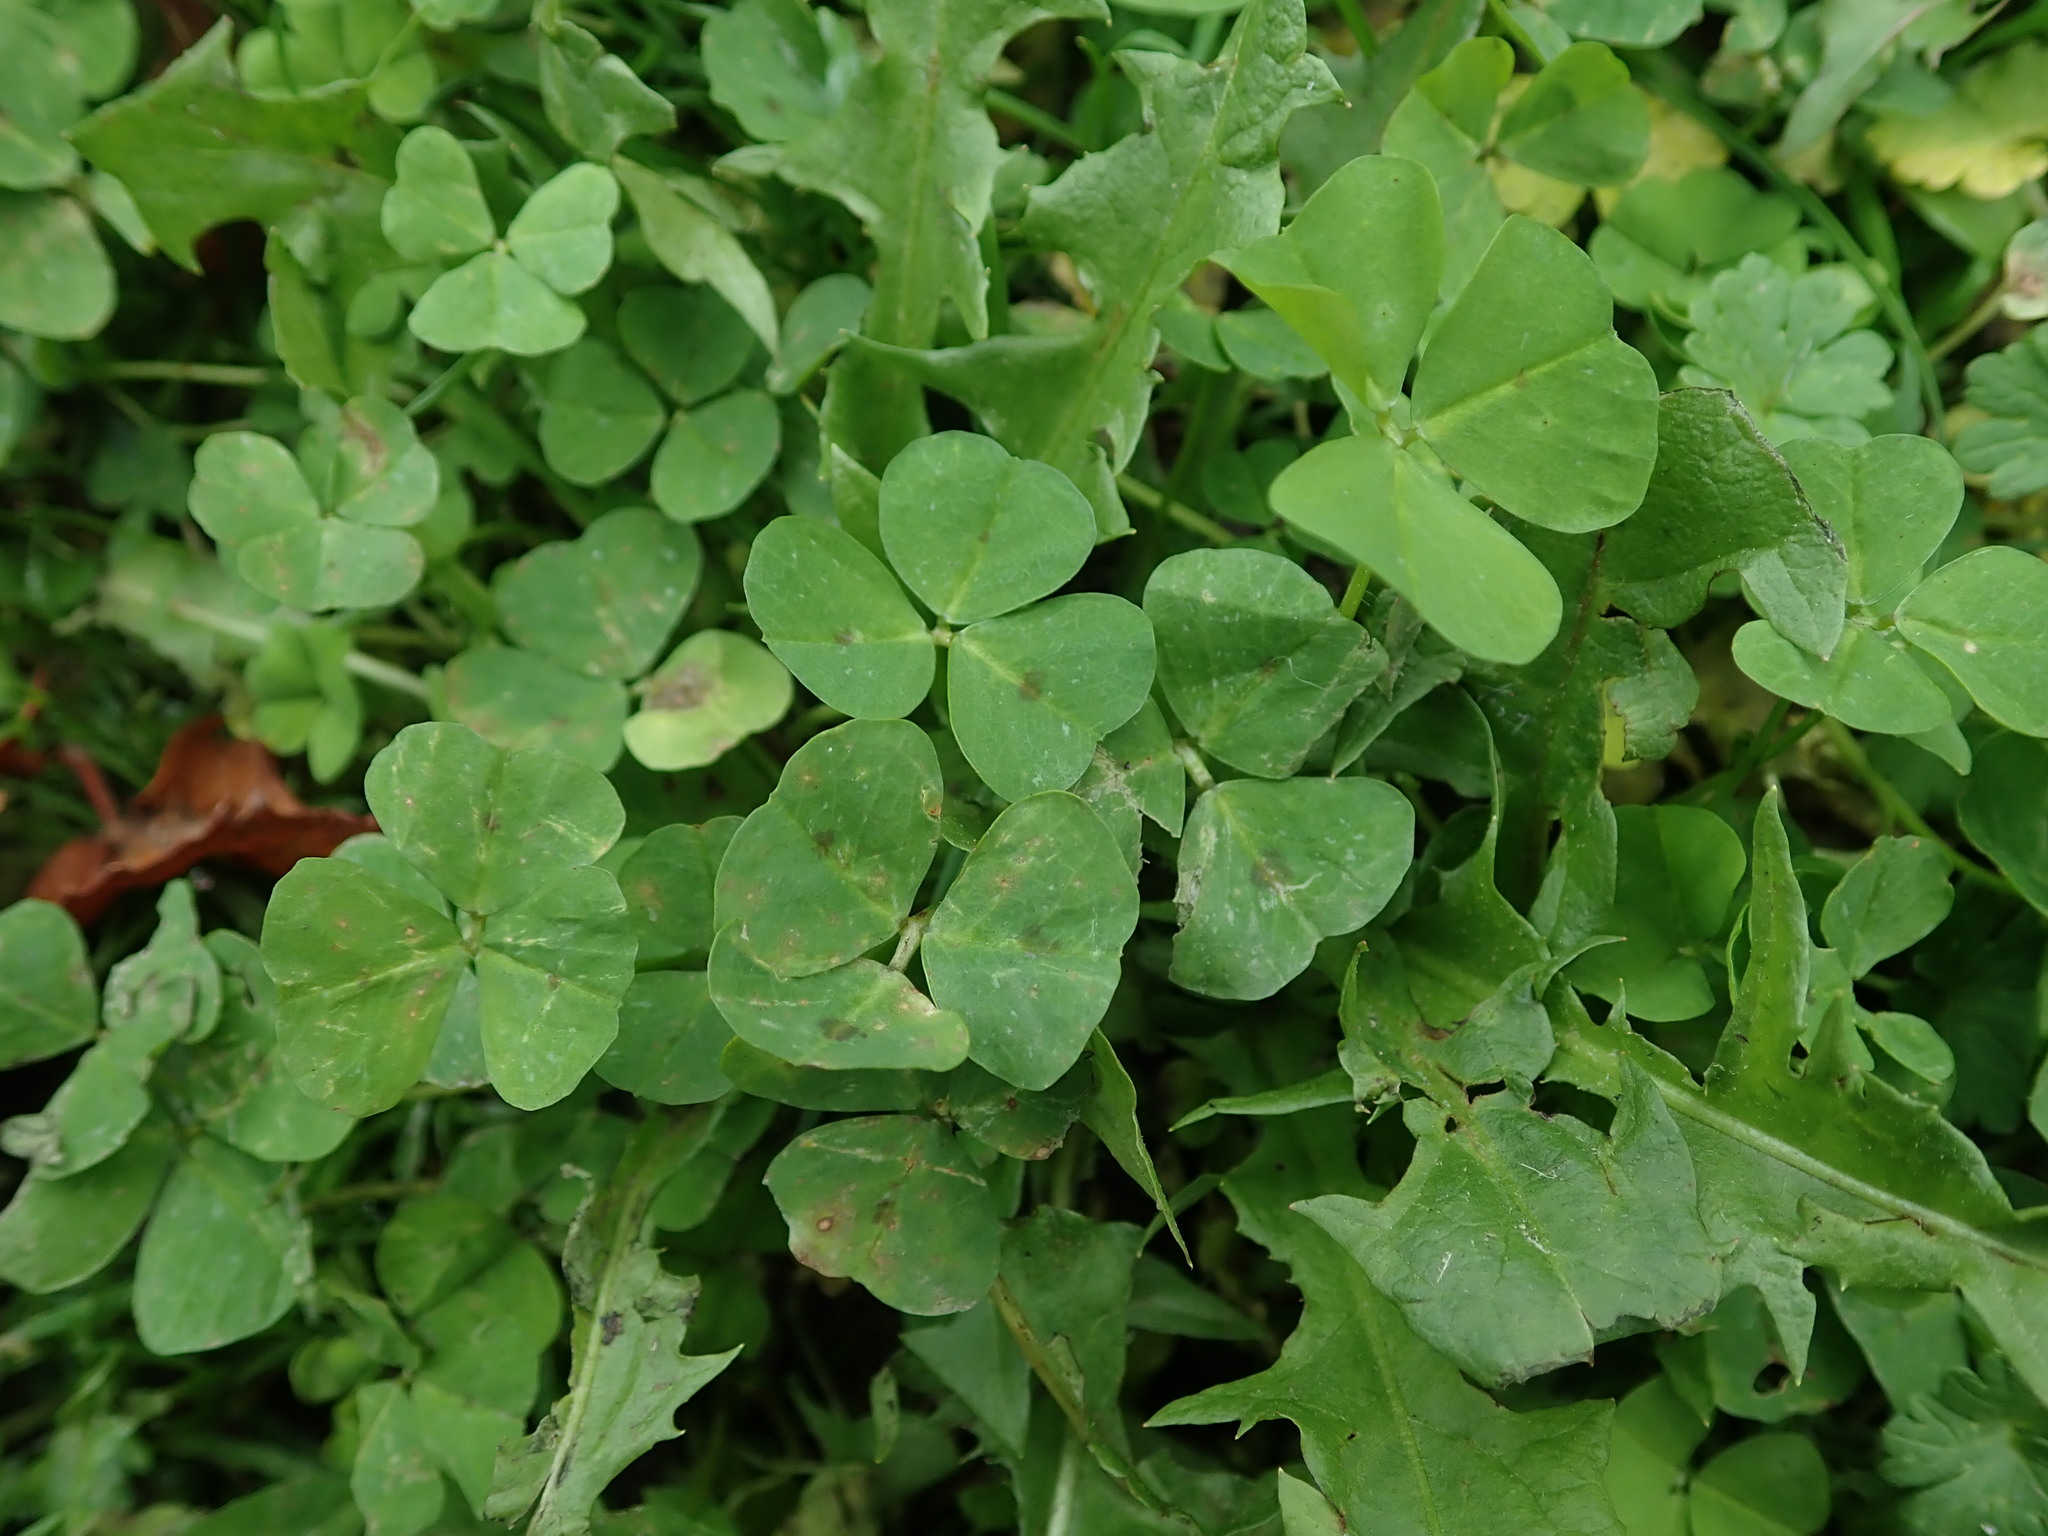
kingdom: Plantae
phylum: Tracheophyta
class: Magnoliopsida
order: Fabales
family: Fabaceae
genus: Medicago
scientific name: Medicago arabica
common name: Spotted medick
